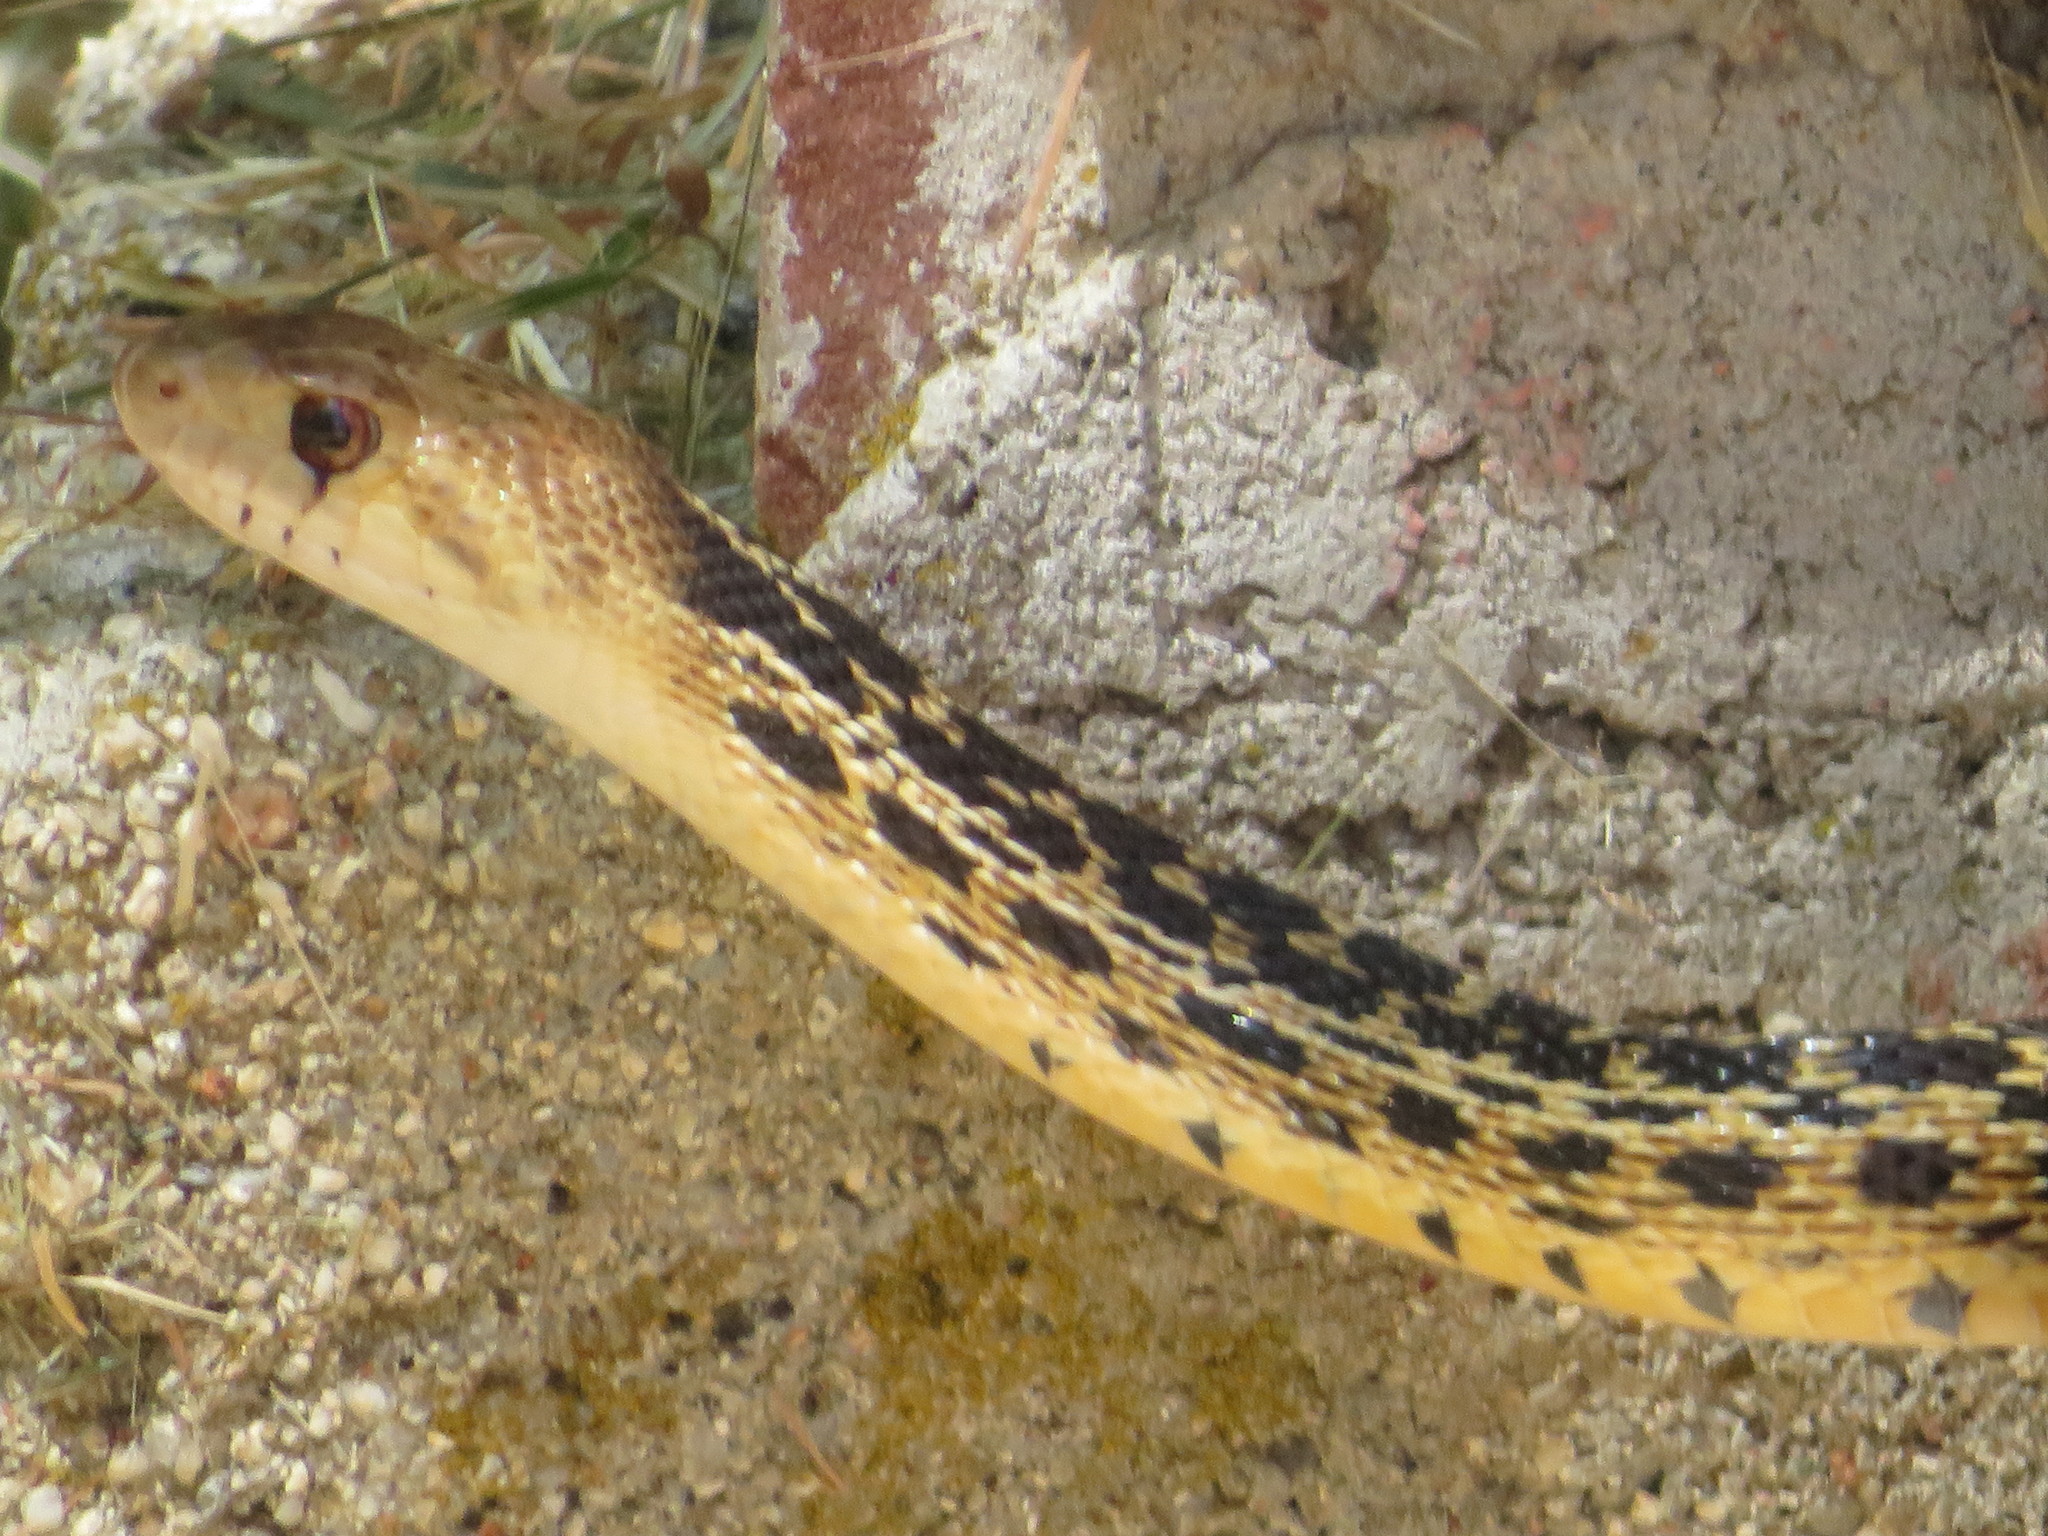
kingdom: Animalia
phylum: Chordata
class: Squamata
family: Colubridae
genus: Pituophis
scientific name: Pituophis catenifer
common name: Gopher snake
